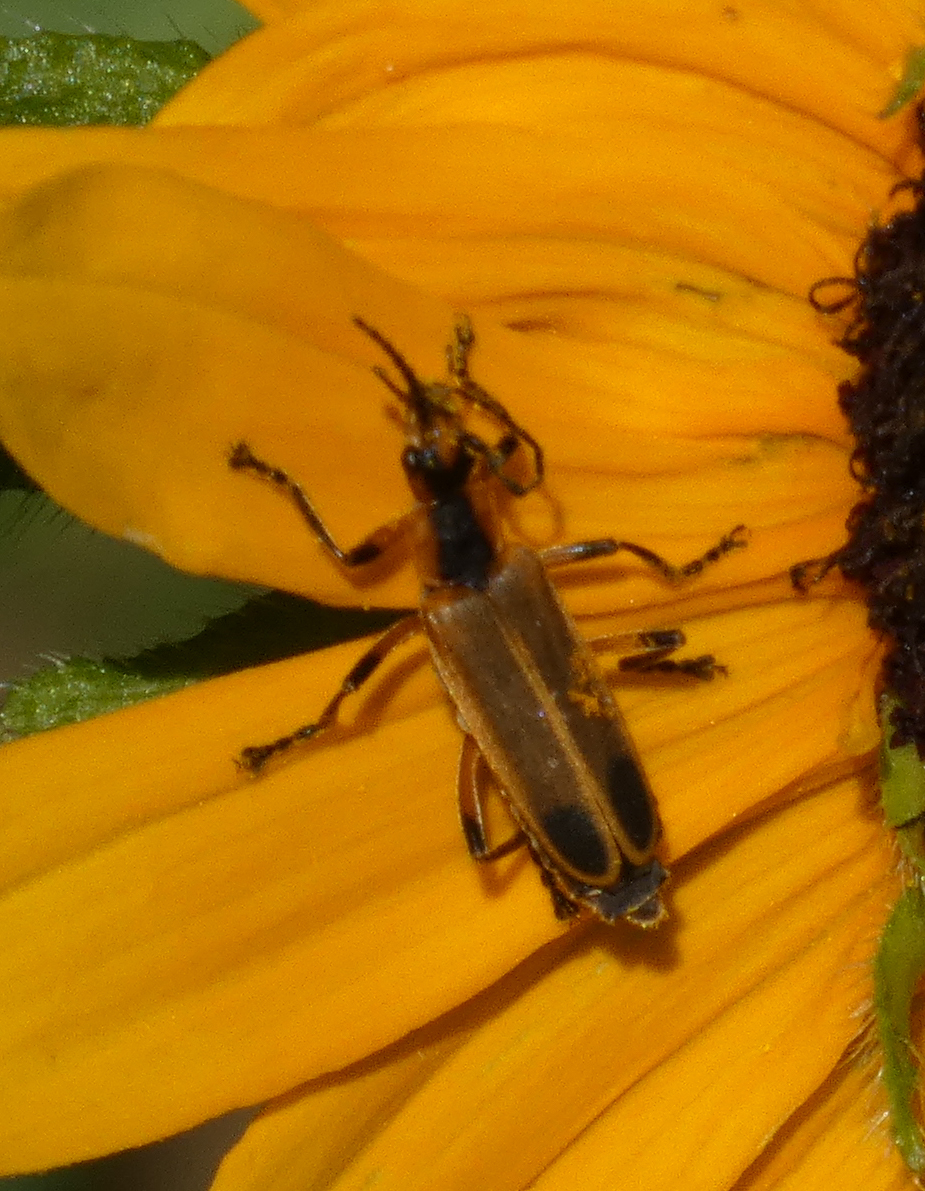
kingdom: Animalia
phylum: Arthropoda
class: Insecta
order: Coleoptera
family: Cantharidae
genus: Chauliognathus
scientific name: Chauliognathus marginatus
